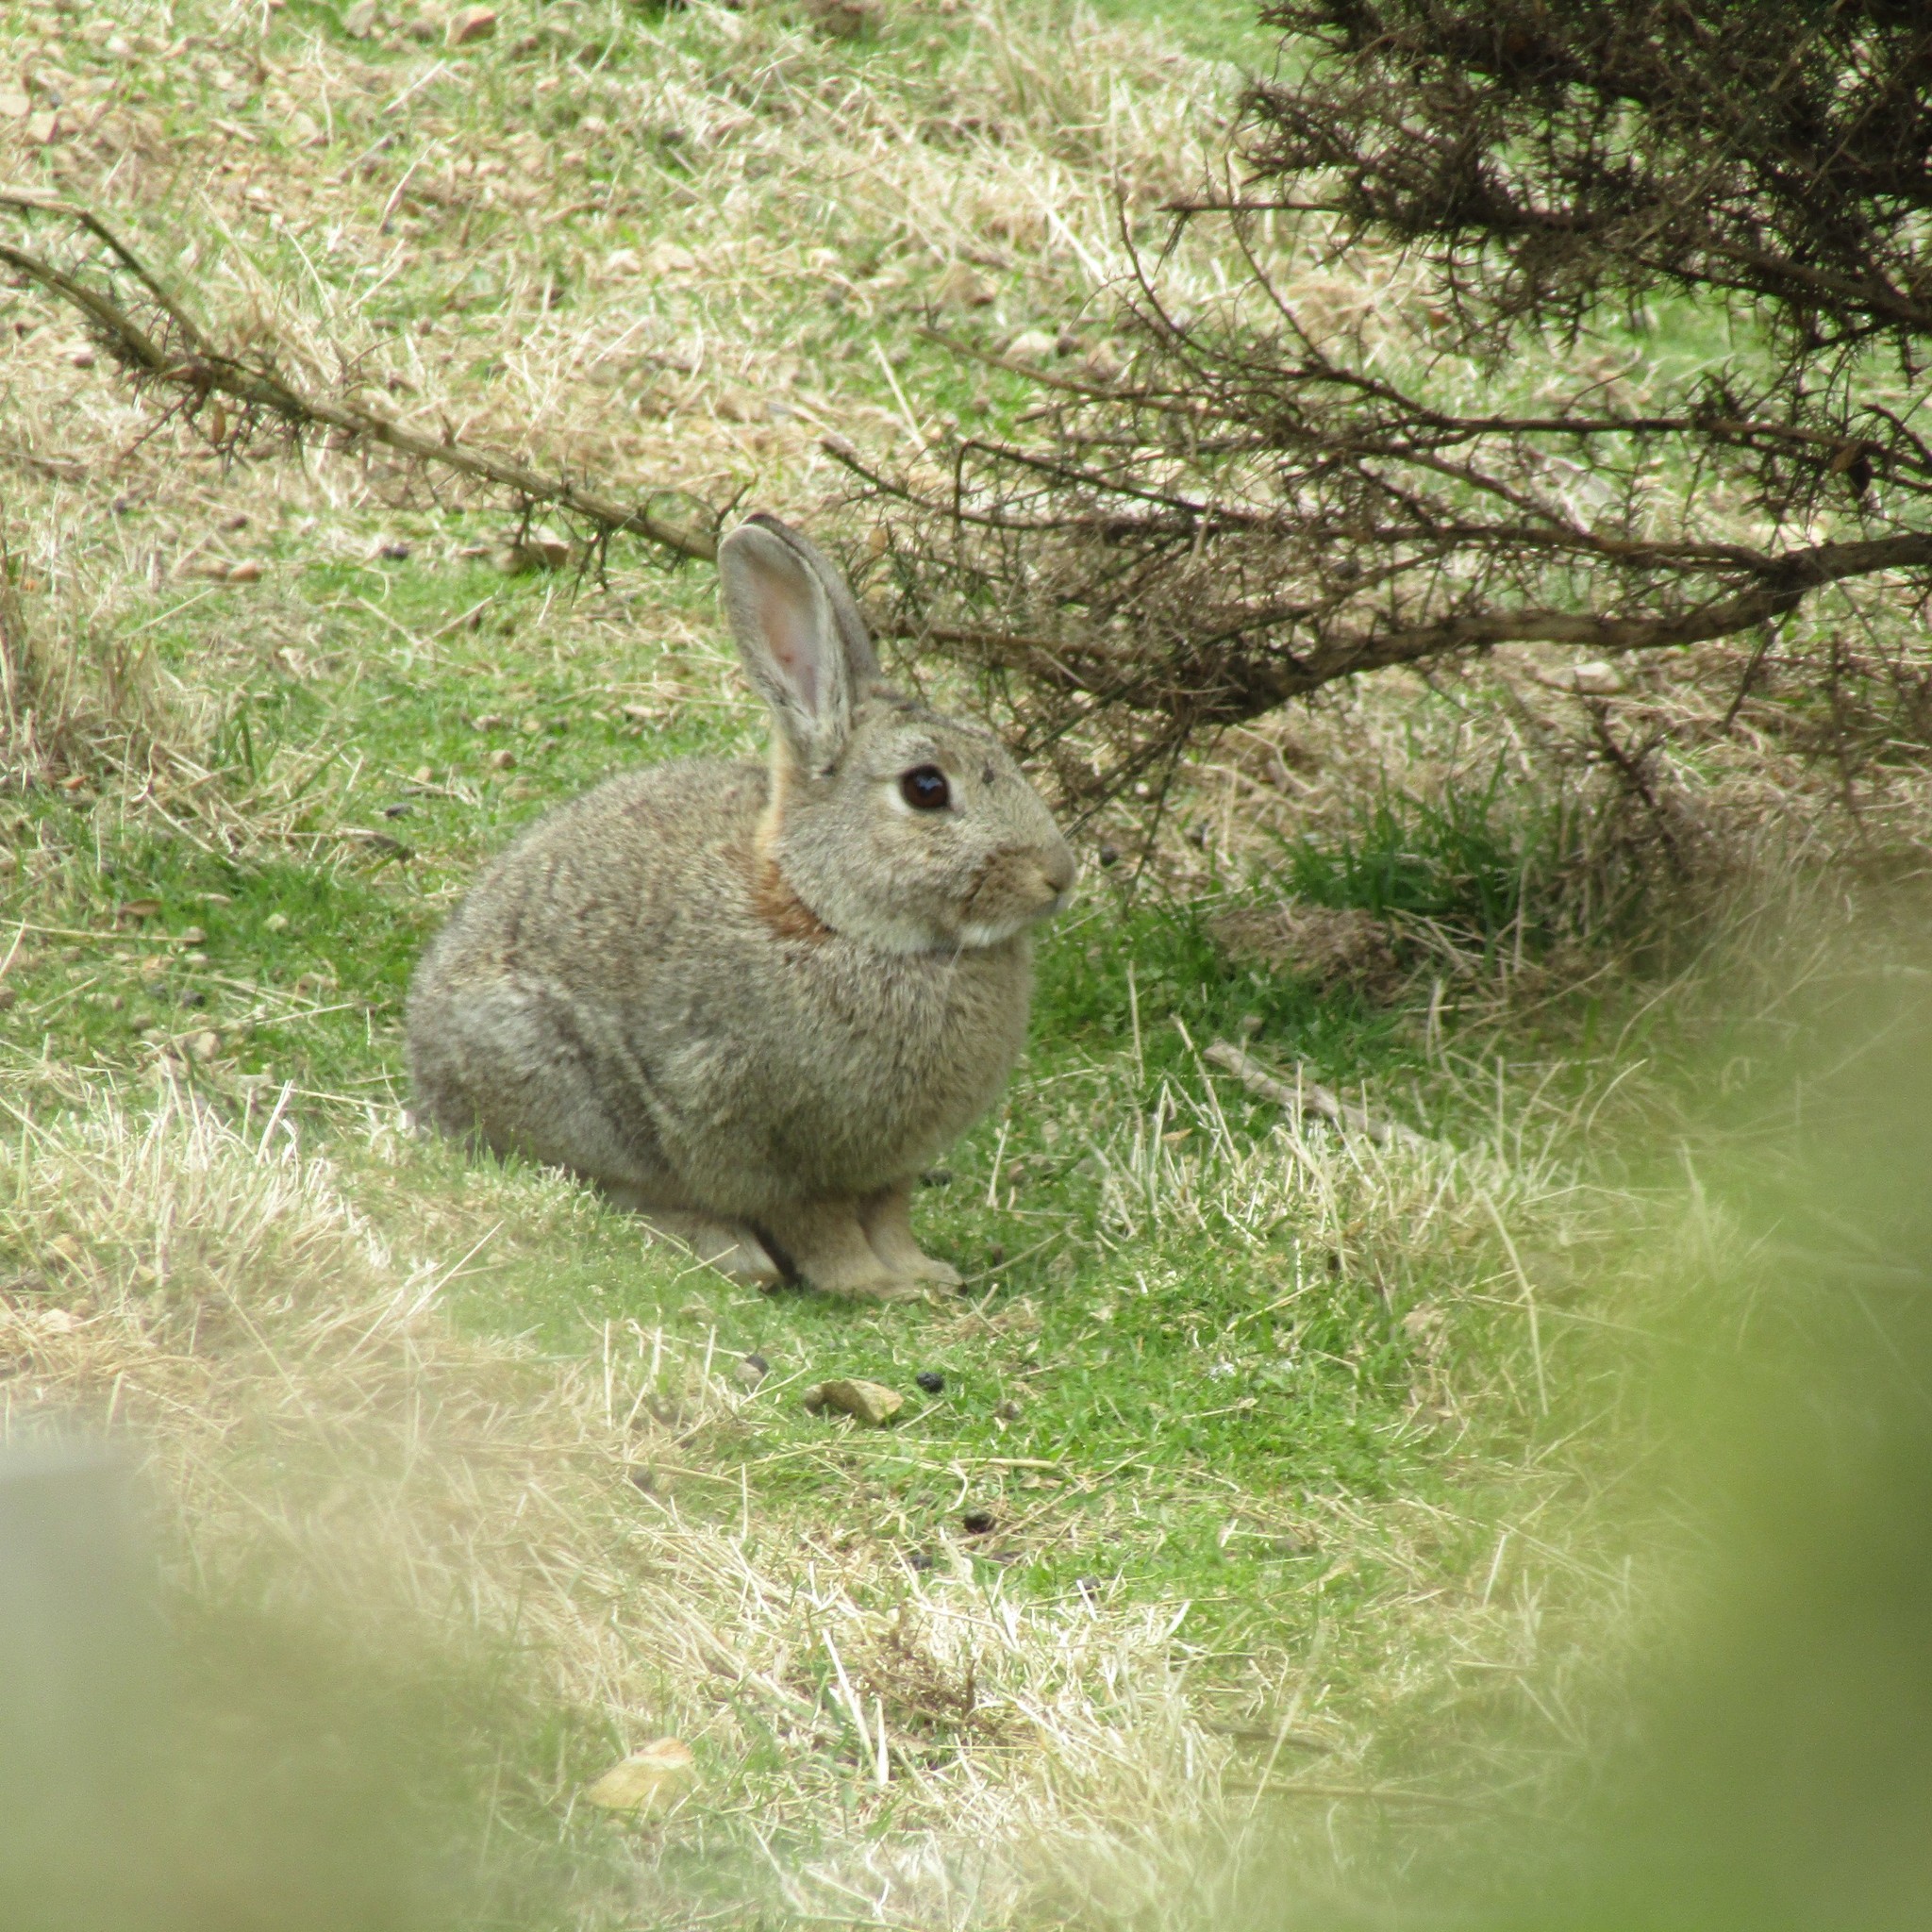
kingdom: Animalia
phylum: Chordata
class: Mammalia
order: Lagomorpha
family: Leporidae
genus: Oryctolagus
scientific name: Oryctolagus cuniculus
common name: European rabbit
